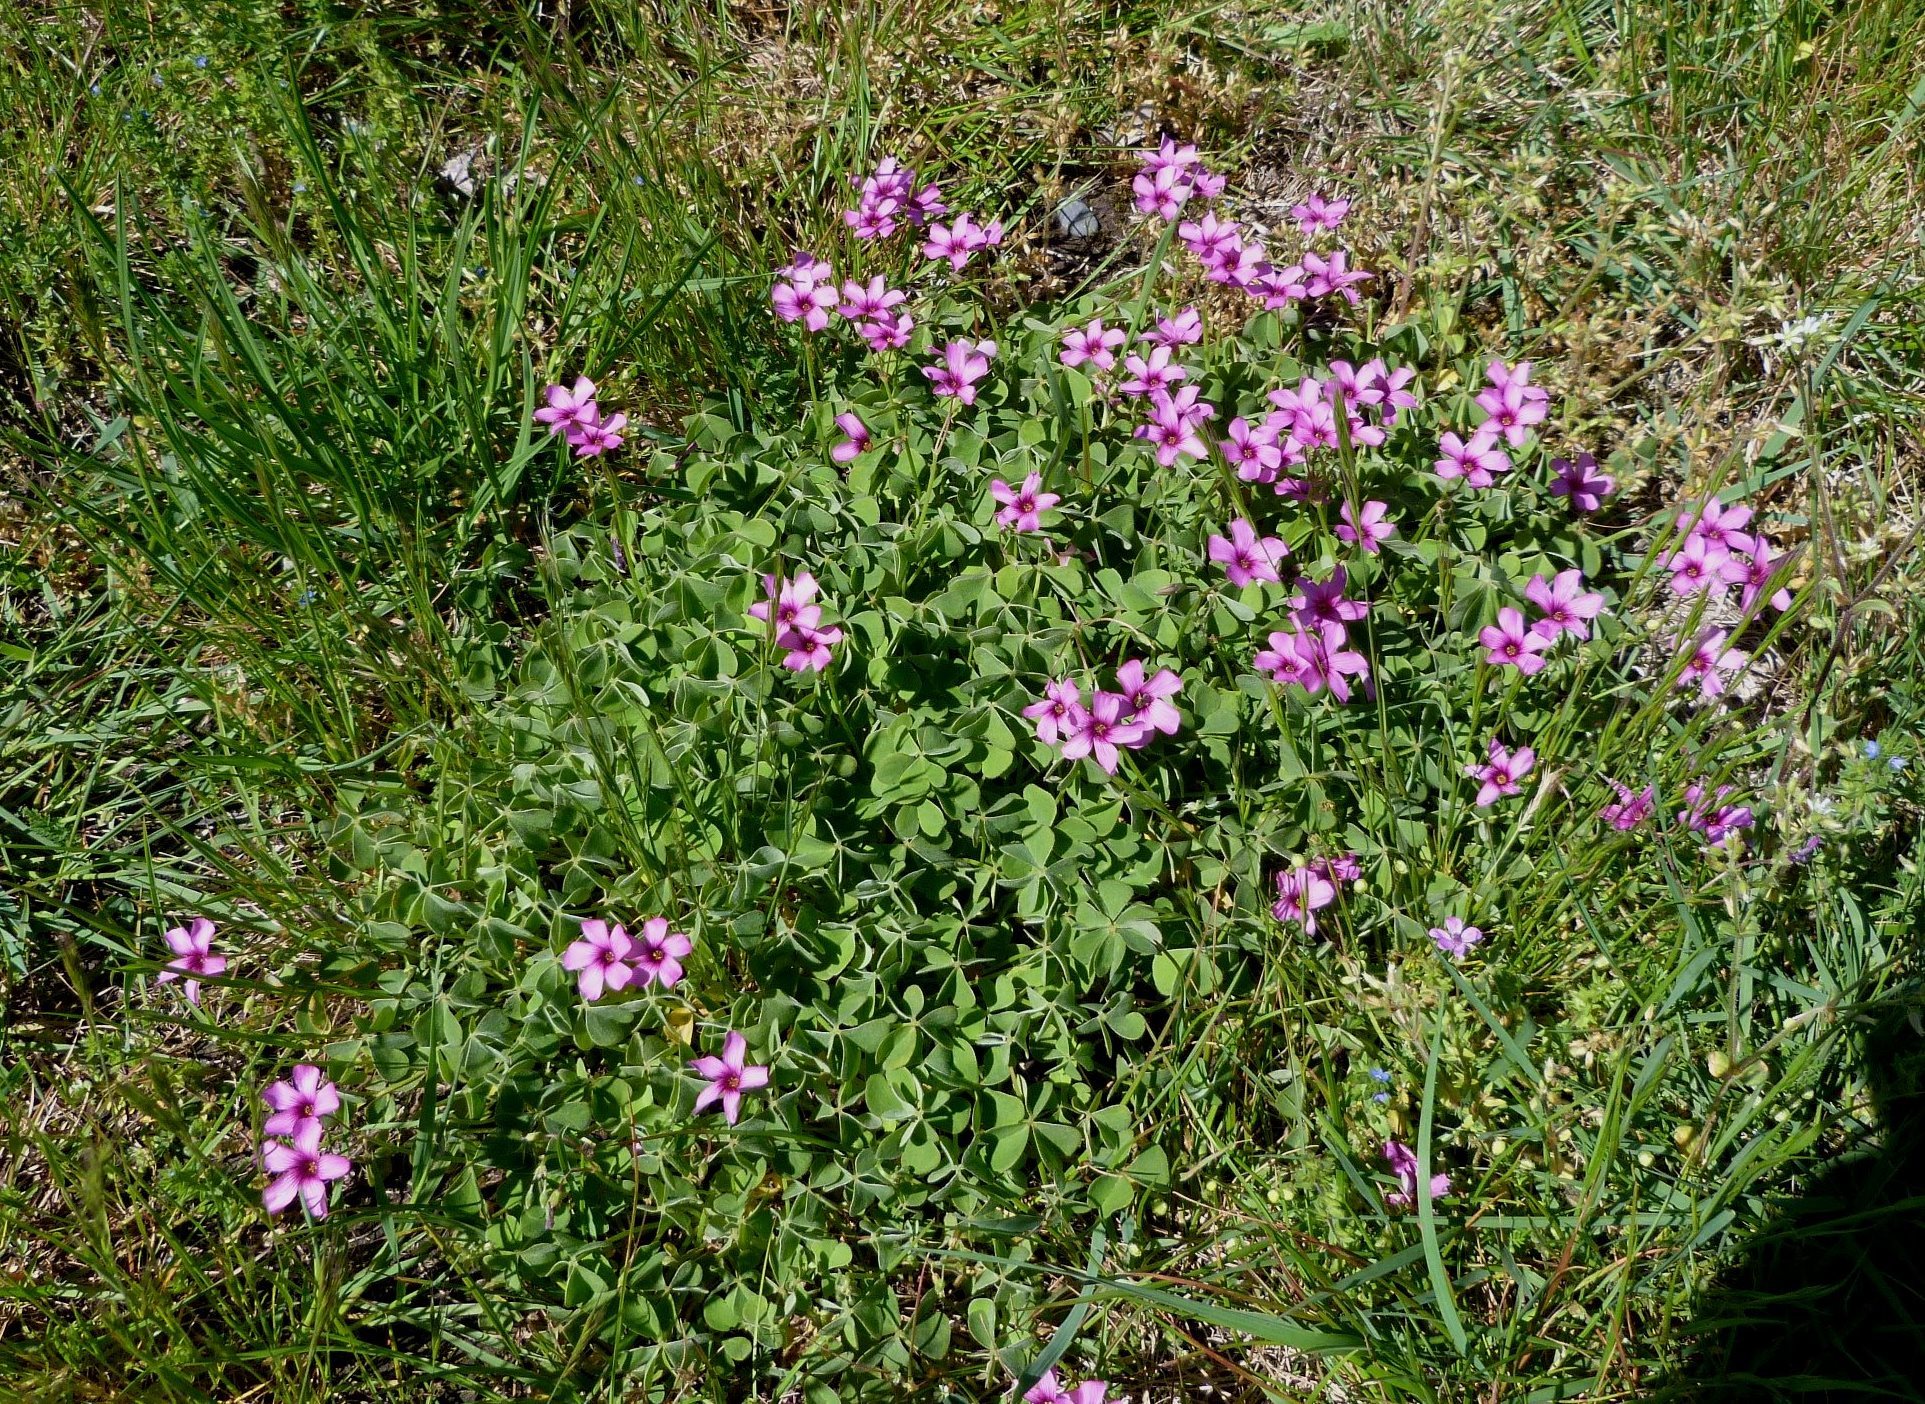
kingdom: Plantae
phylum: Tracheophyta
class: Magnoliopsida
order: Oxalidales
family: Oxalidaceae
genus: Oxalis
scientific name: Oxalis articulata
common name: Pink-sorrel
